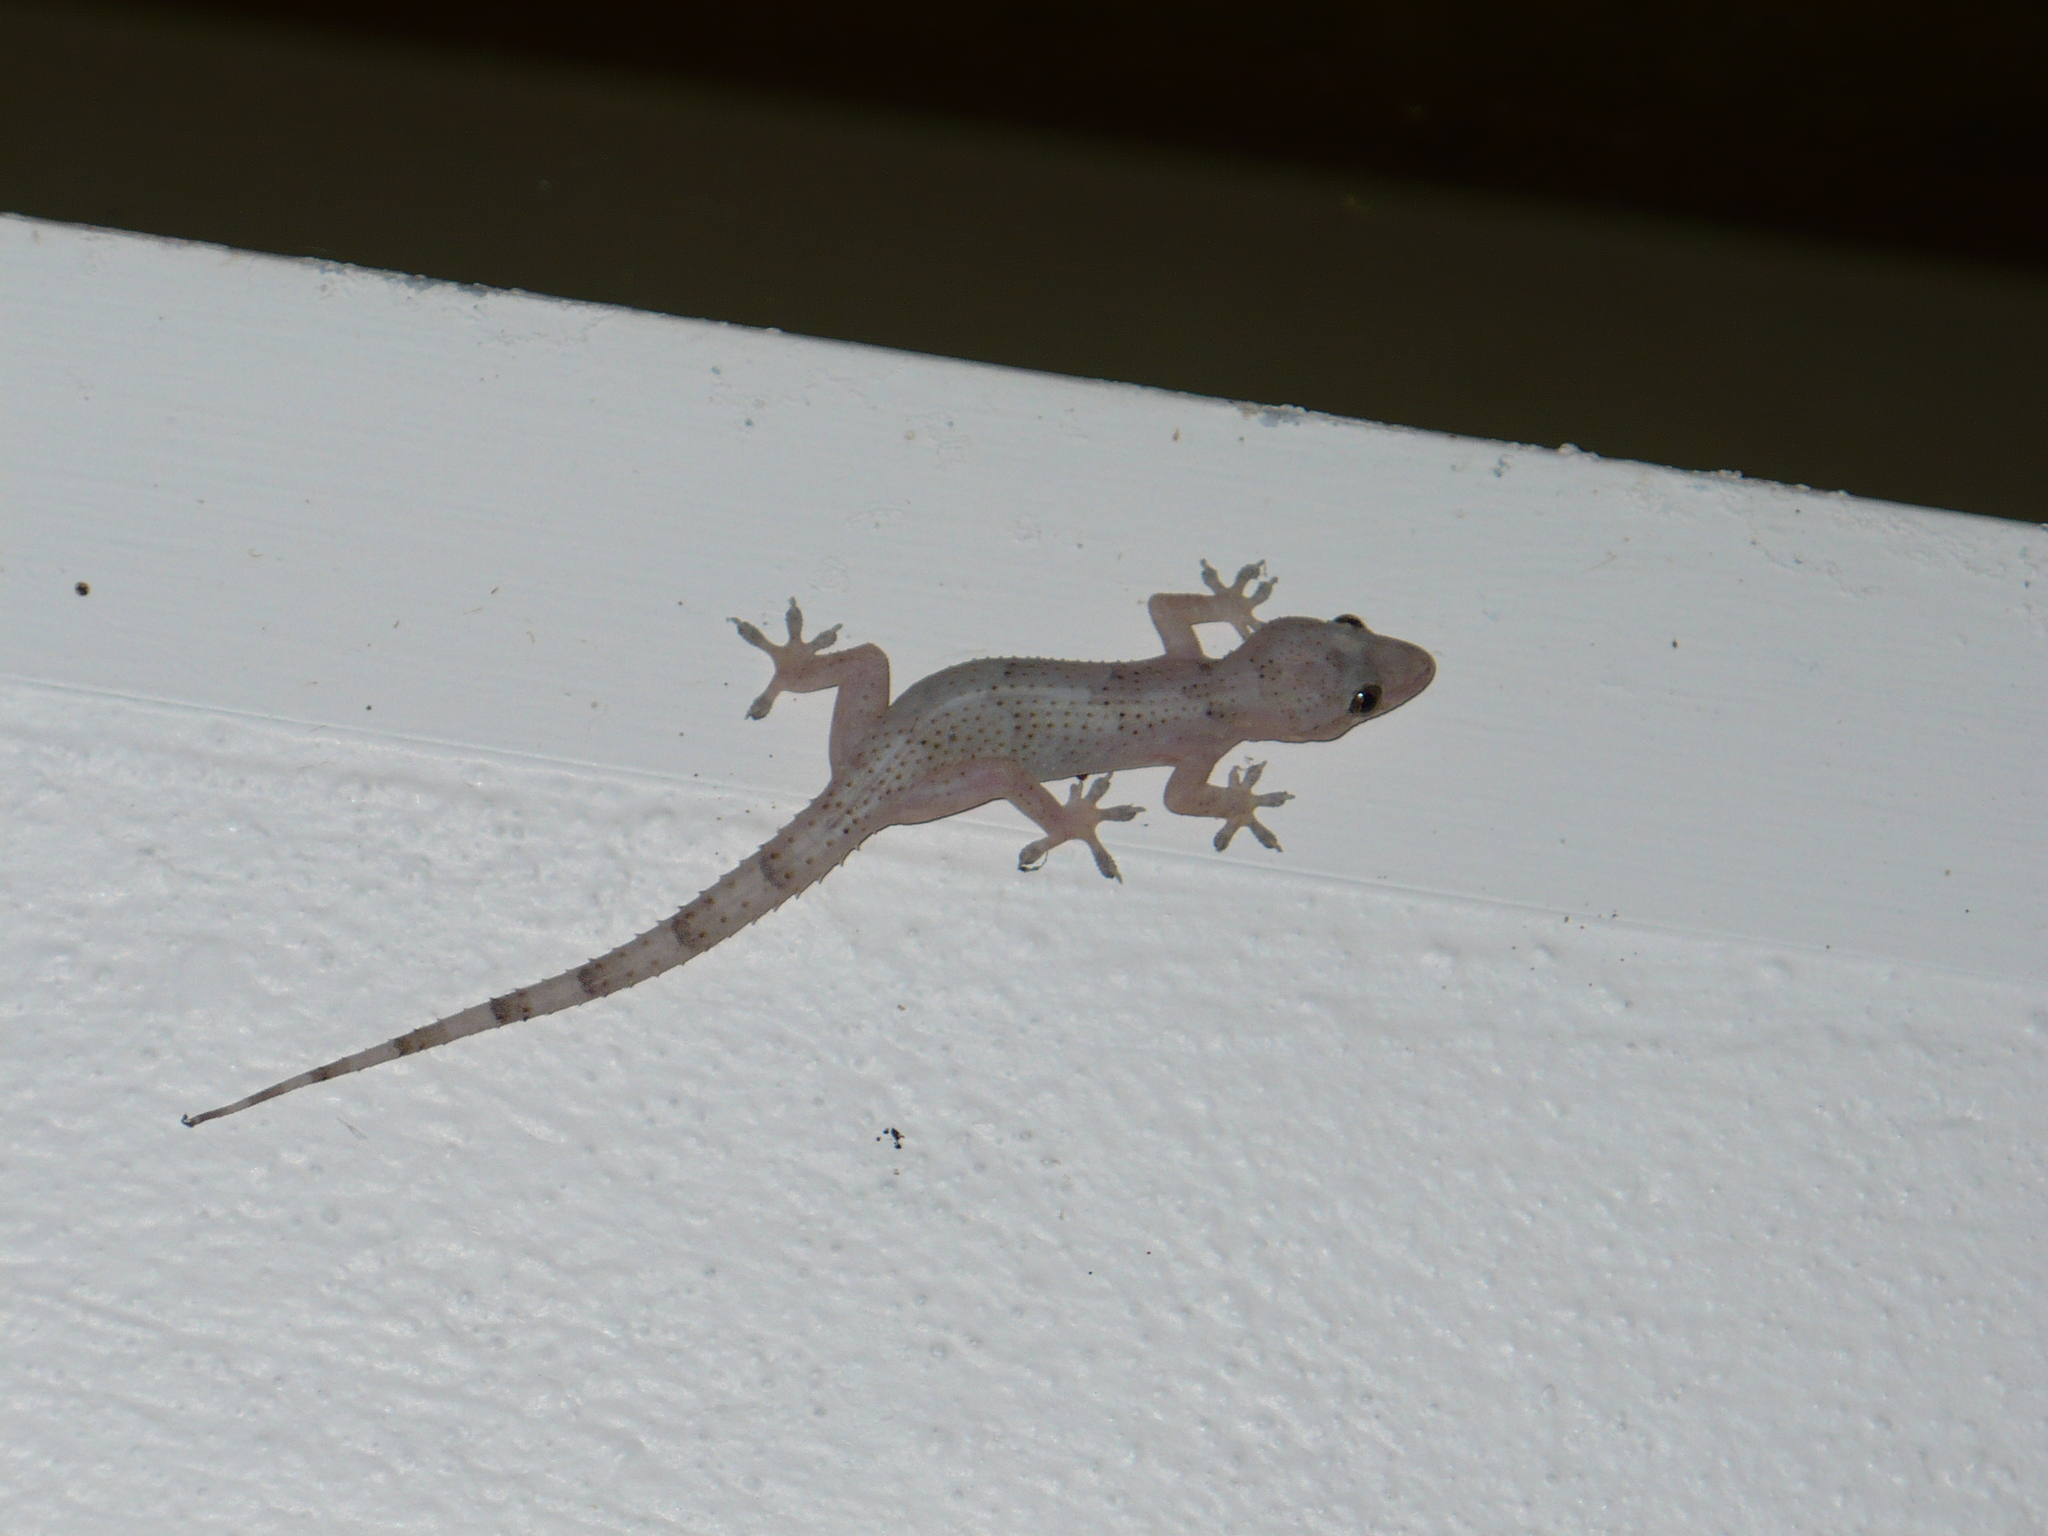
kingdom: Animalia
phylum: Chordata
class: Squamata
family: Gekkonidae
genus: Hemidactylus
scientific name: Hemidactylus mabouia
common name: House gecko
